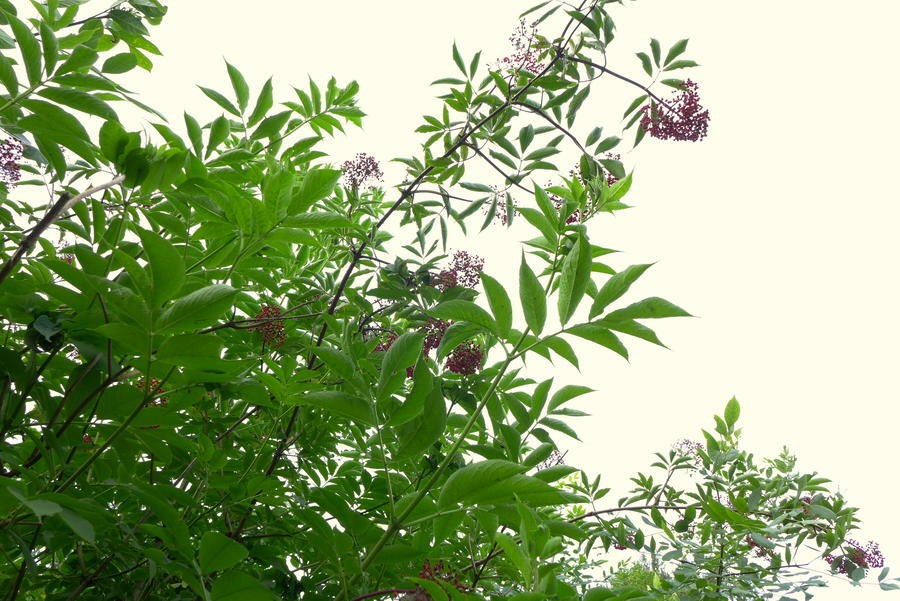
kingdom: Plantae
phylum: Tracheophyta
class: Magnoliopsida
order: Dipsacales
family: Viburnaceae
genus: Sambucus
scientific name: Sambucus racemosa
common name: Red-berried elder
